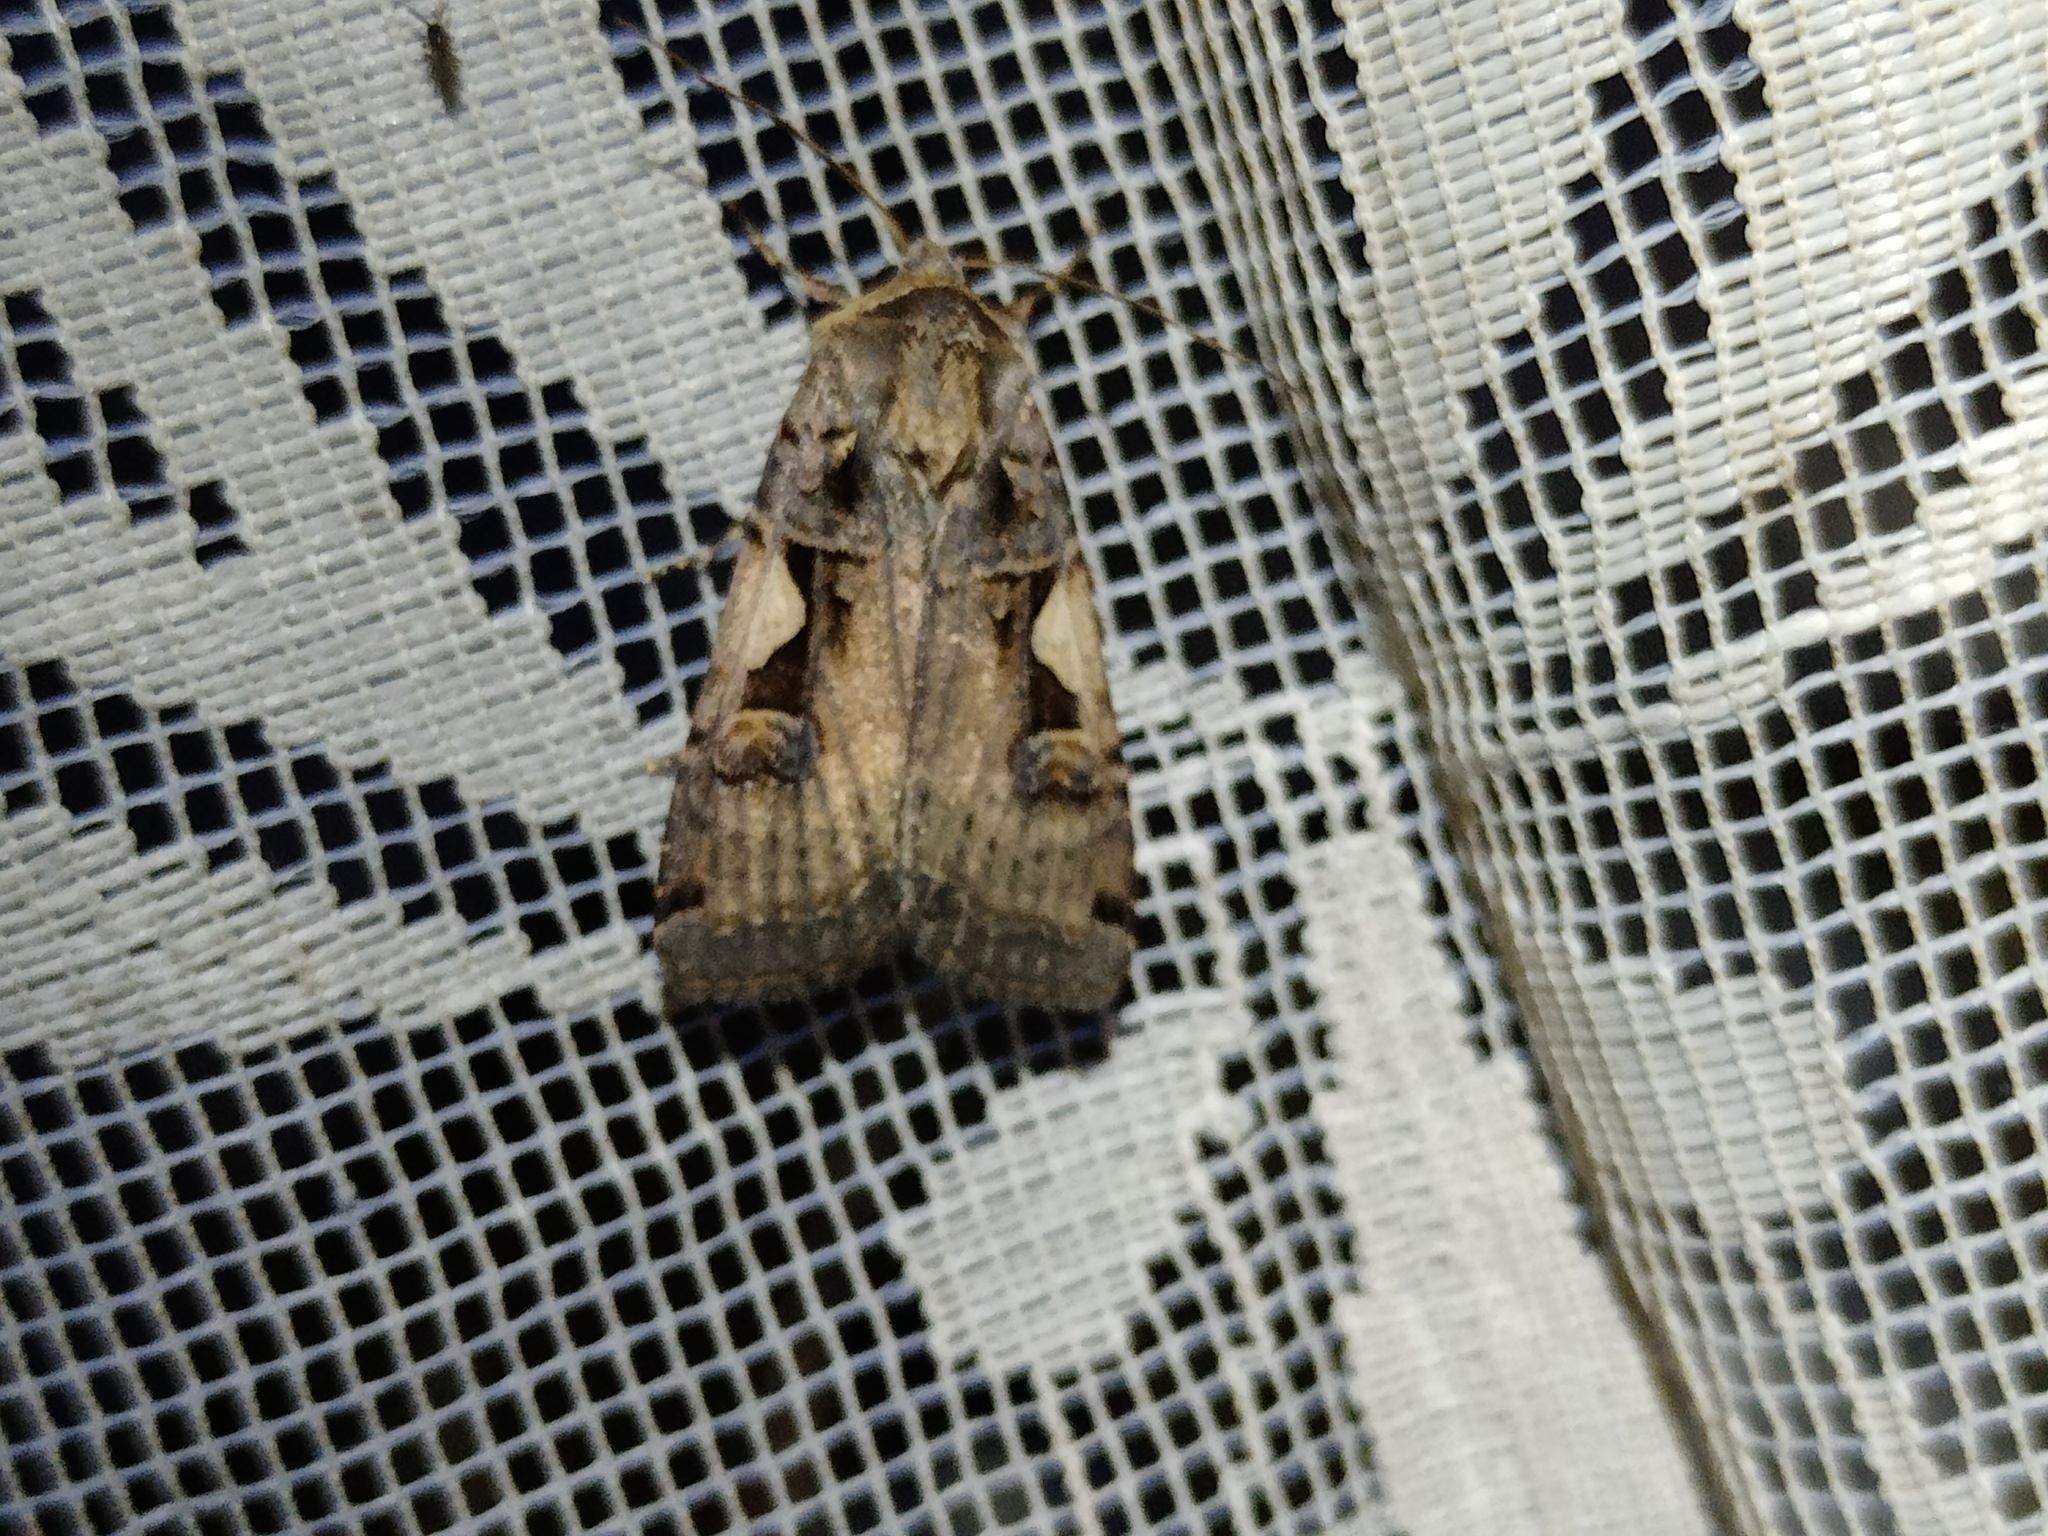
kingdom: Animalia
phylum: Arthropoda
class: Insecta
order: Lepidoptera
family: Noctuidae
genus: Xestia
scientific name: Xestia c-nigrum
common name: Setaceous hebrew character
